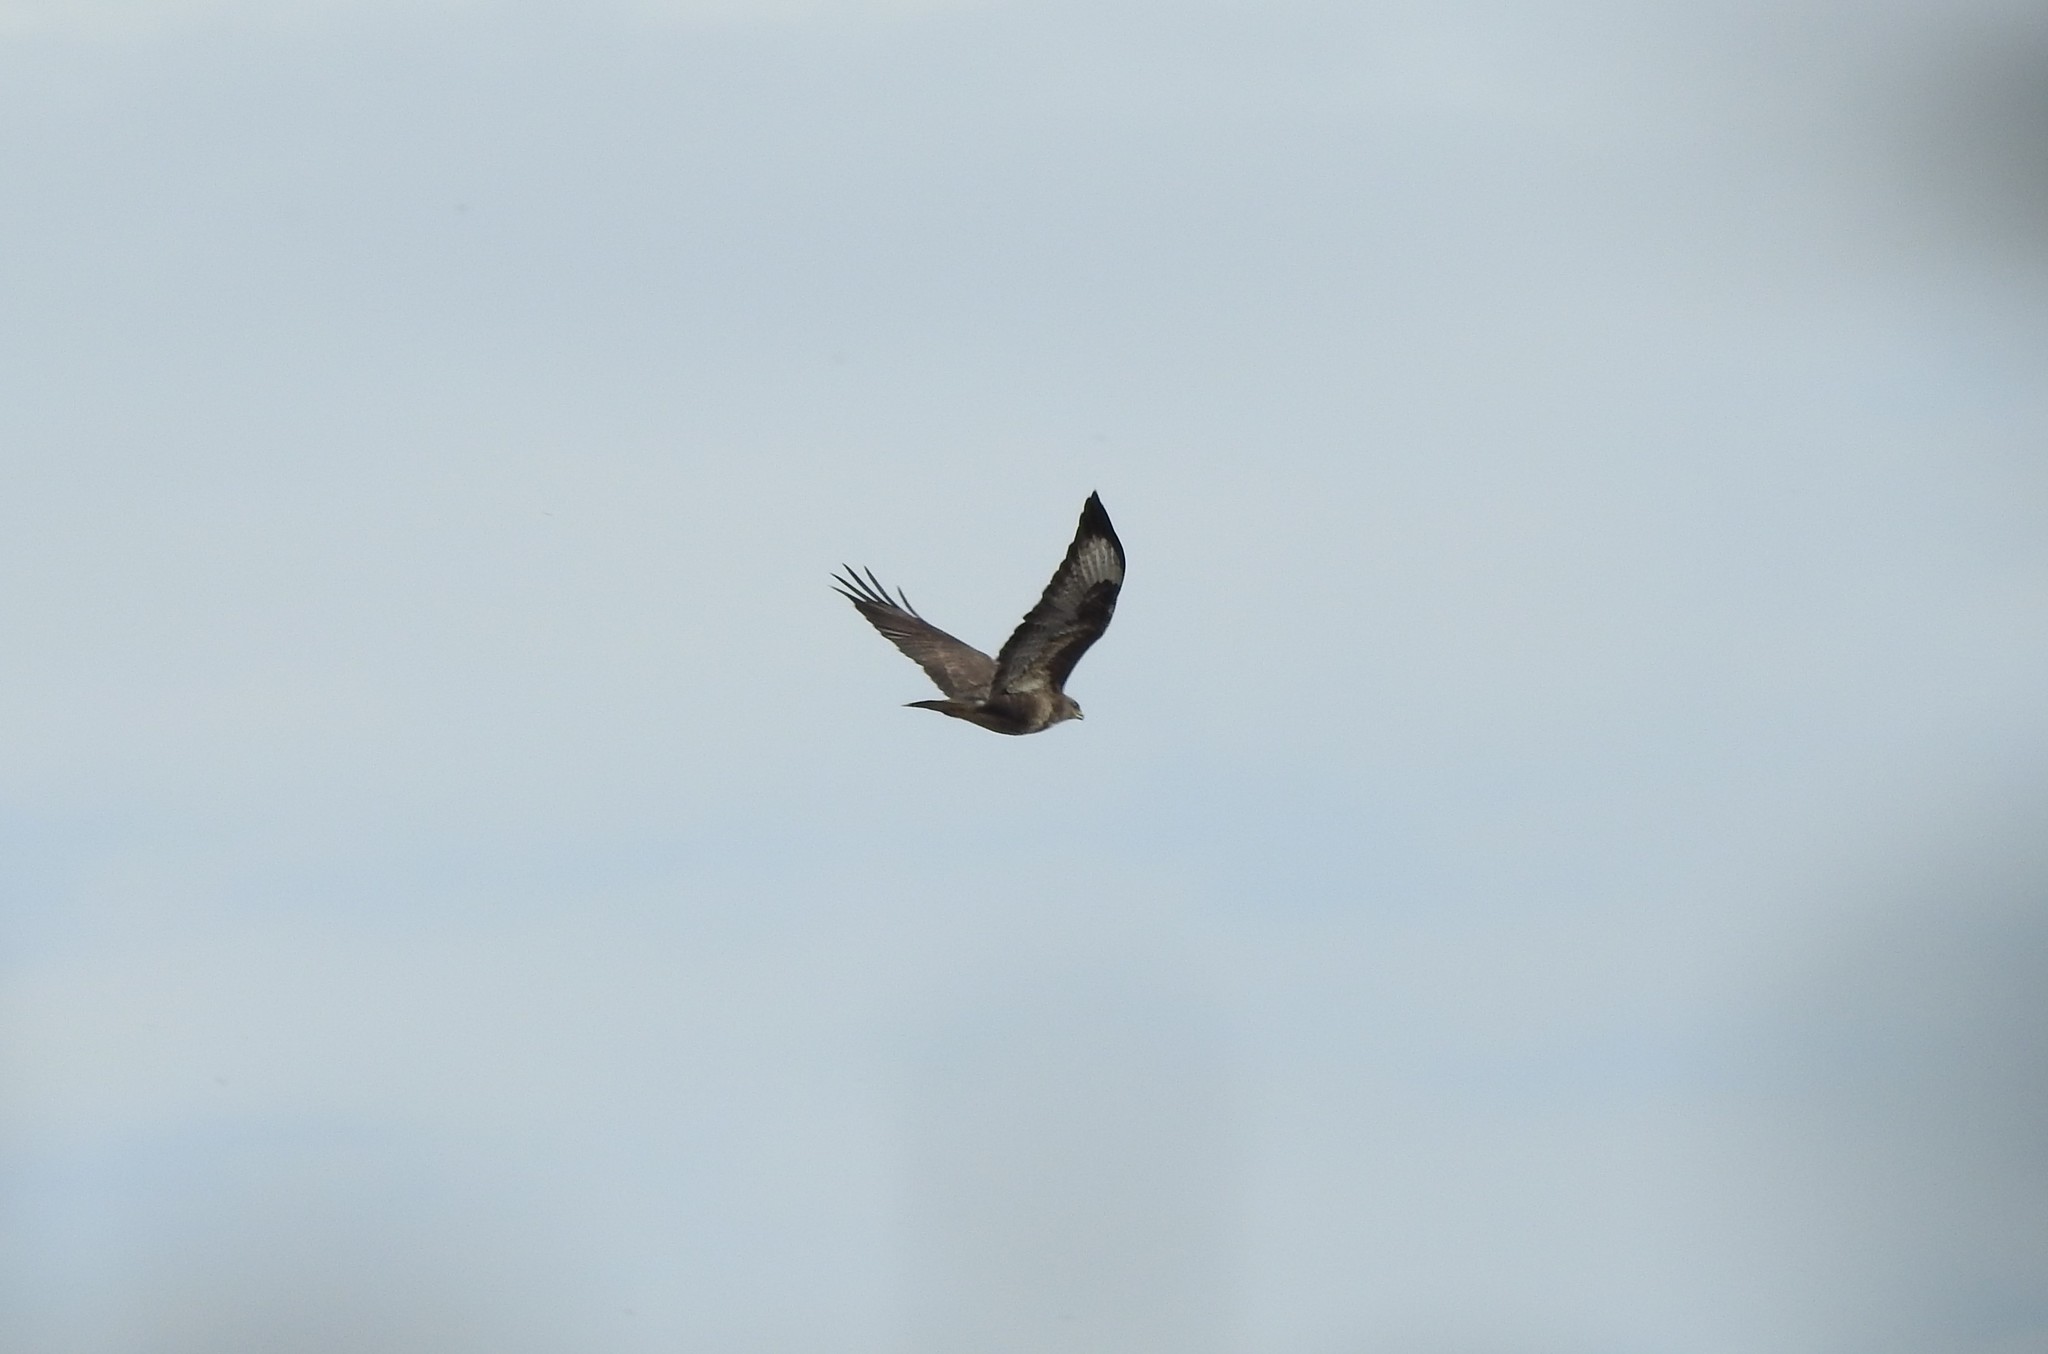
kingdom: Animalia
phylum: Chordata
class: Aves
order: Accipitriformes
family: Accipitridae
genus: Buteo
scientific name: Buteo buteo
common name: Common buzzard
